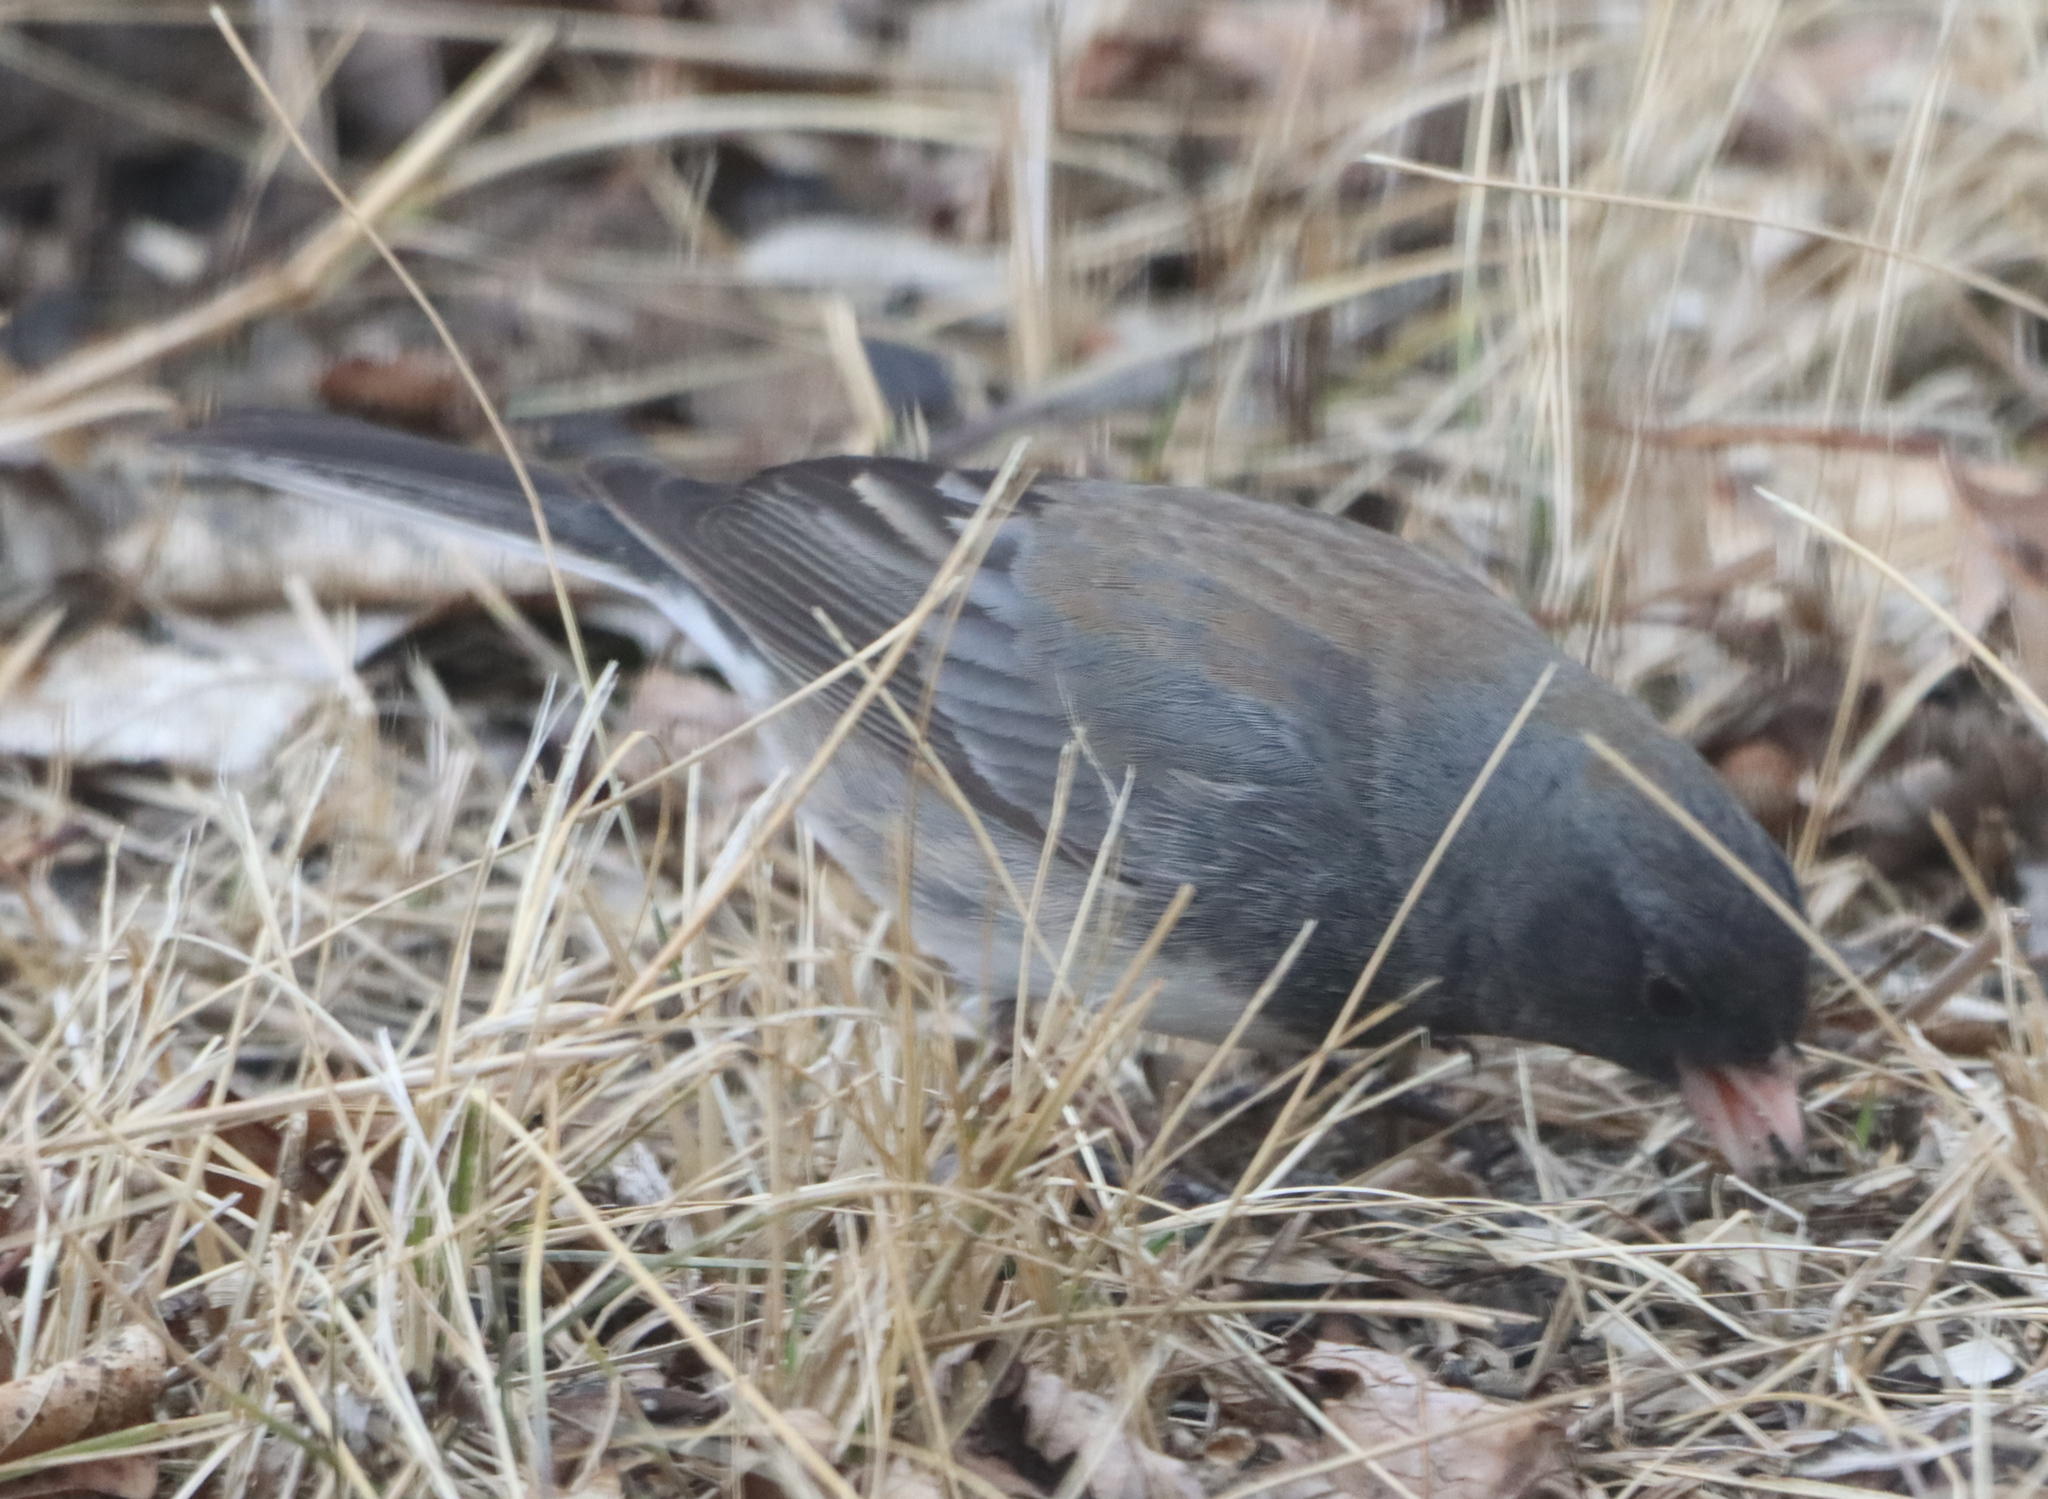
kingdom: Animalia
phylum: Chordata
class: Aves
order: Passeriformes
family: Passerellidae
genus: Junco
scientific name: Junco hyemalis
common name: Dark-eyed junco
